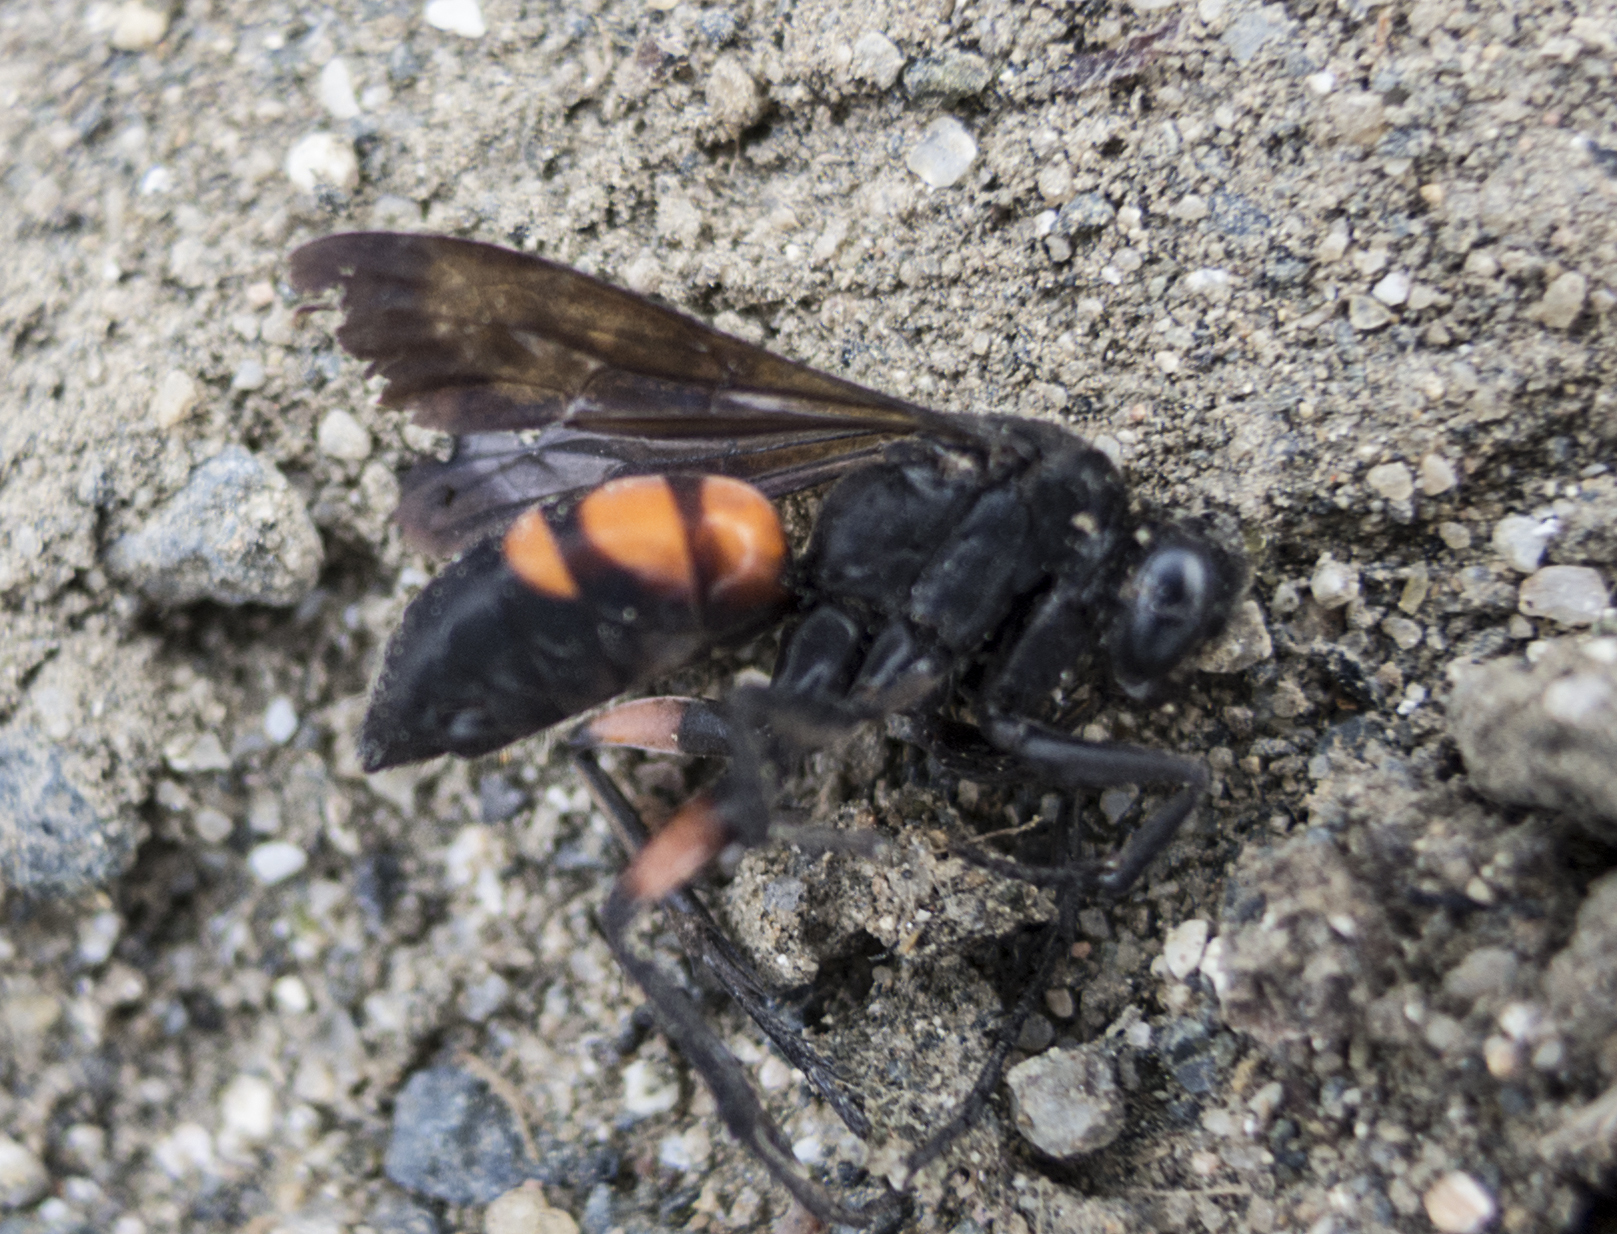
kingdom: Animalia
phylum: Arthropoda
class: Insecta
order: Hymenoptera
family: Pompilidae
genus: Anoplius
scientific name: Anoplius viaticus
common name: Black banded spider wasp
